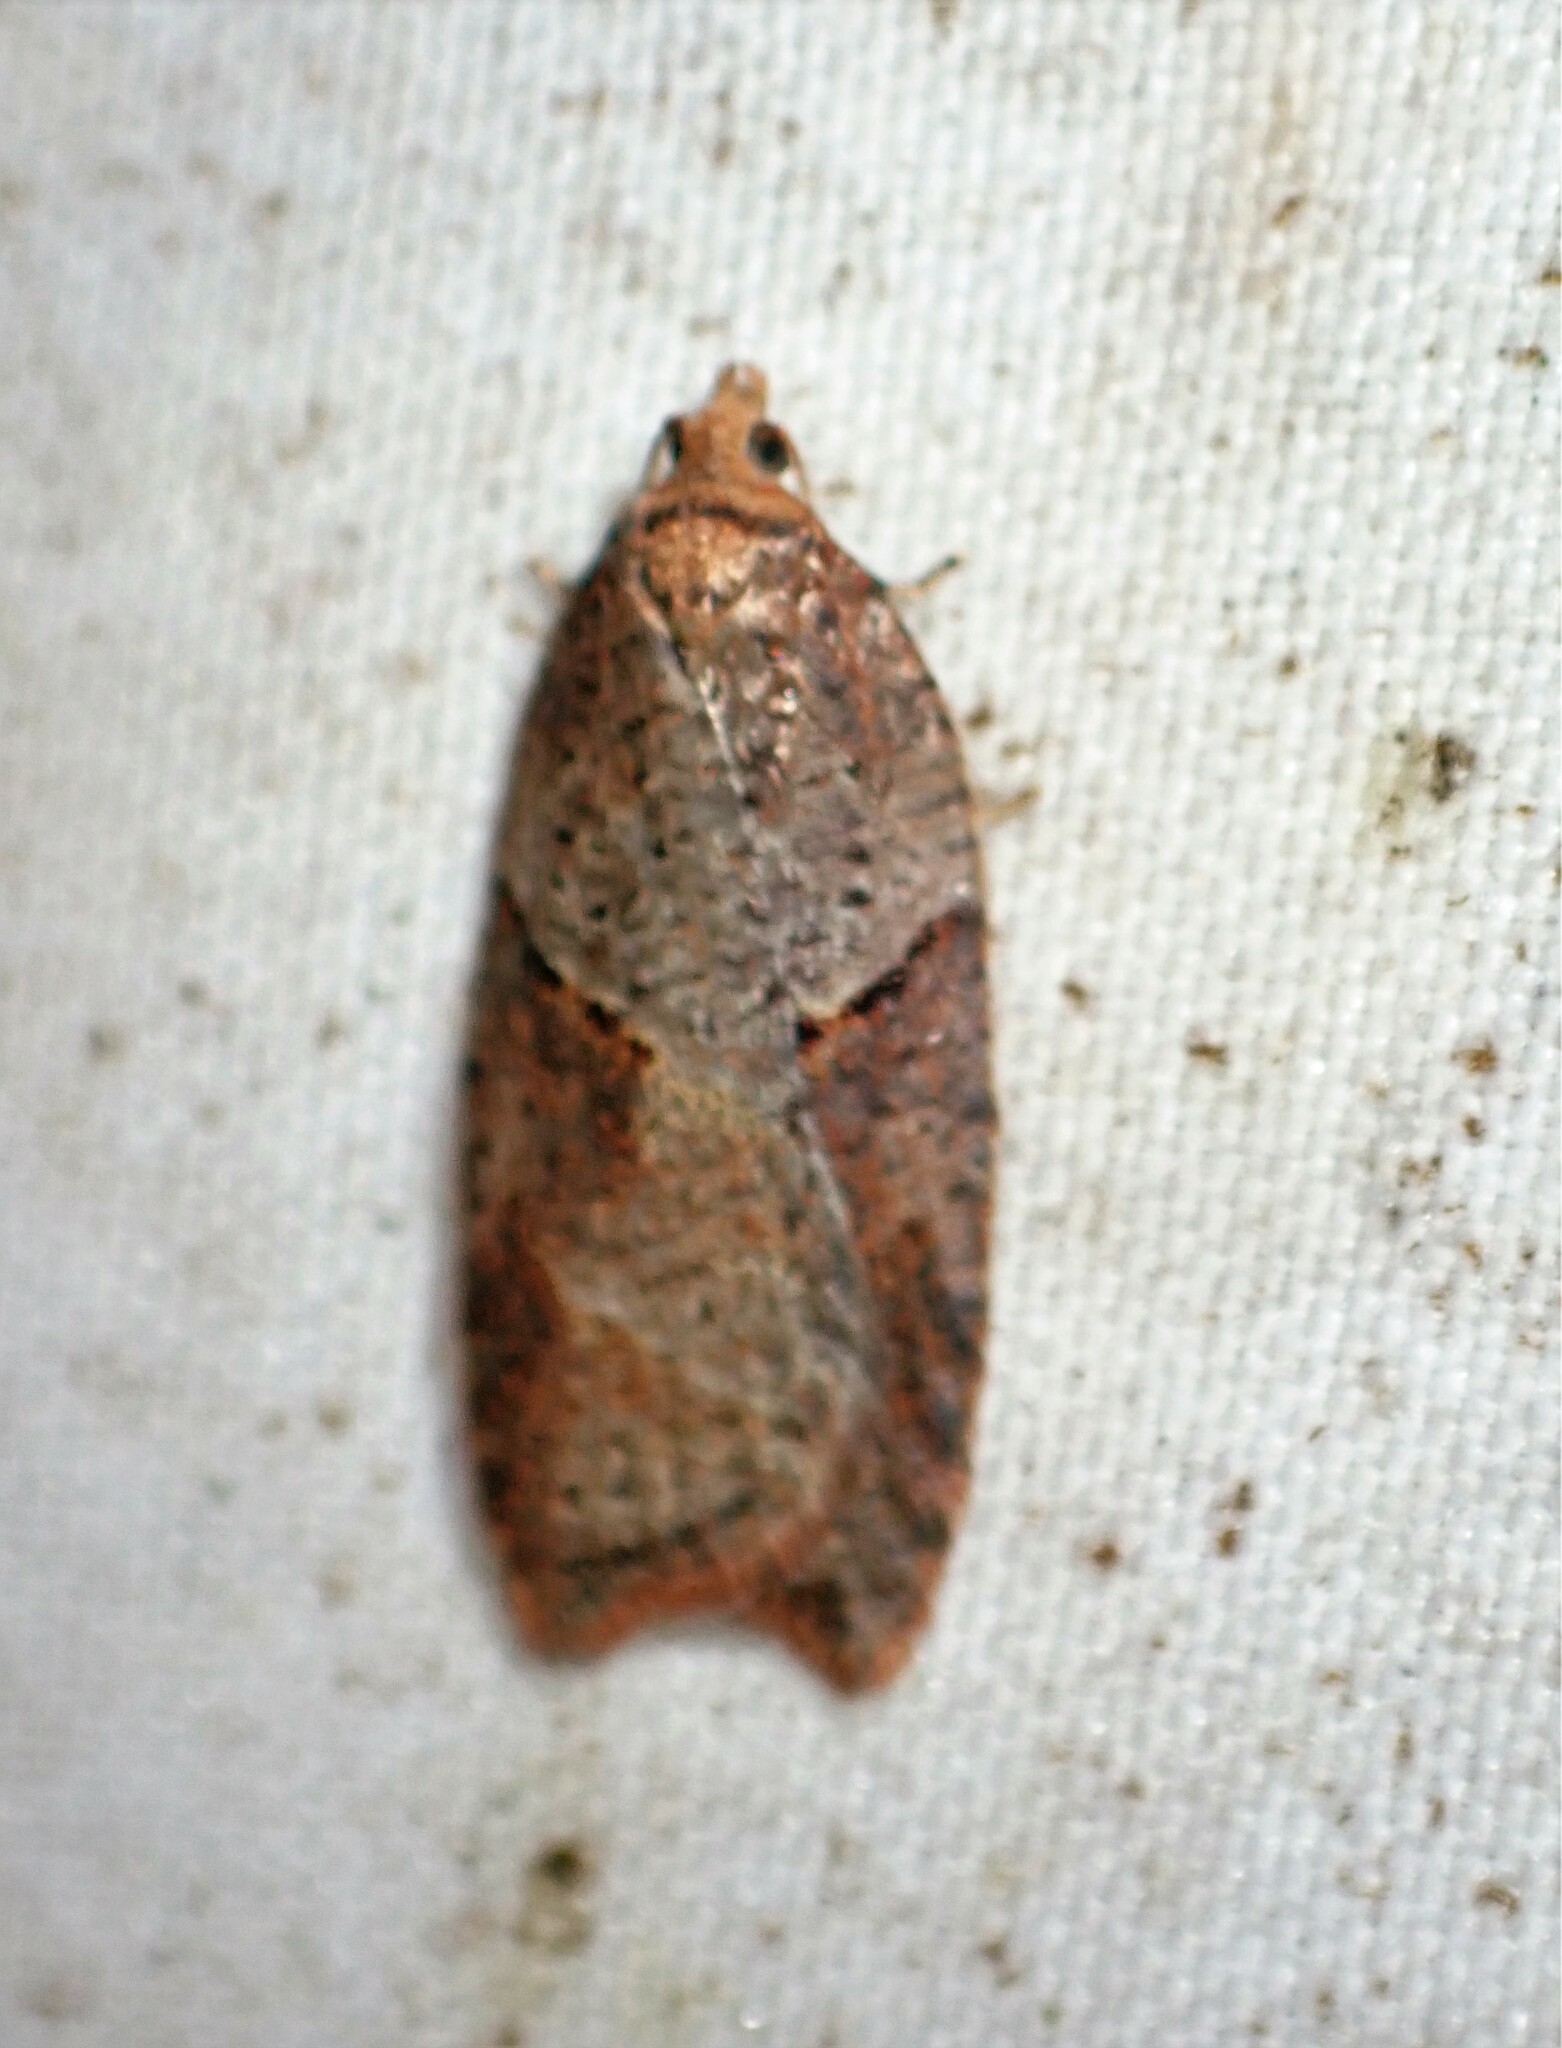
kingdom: Animalia
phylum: Arthropoda
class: Insecta
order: Lepidoptera
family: Tortricidae
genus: Acleris
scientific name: Acleris maccana
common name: Marbled button
